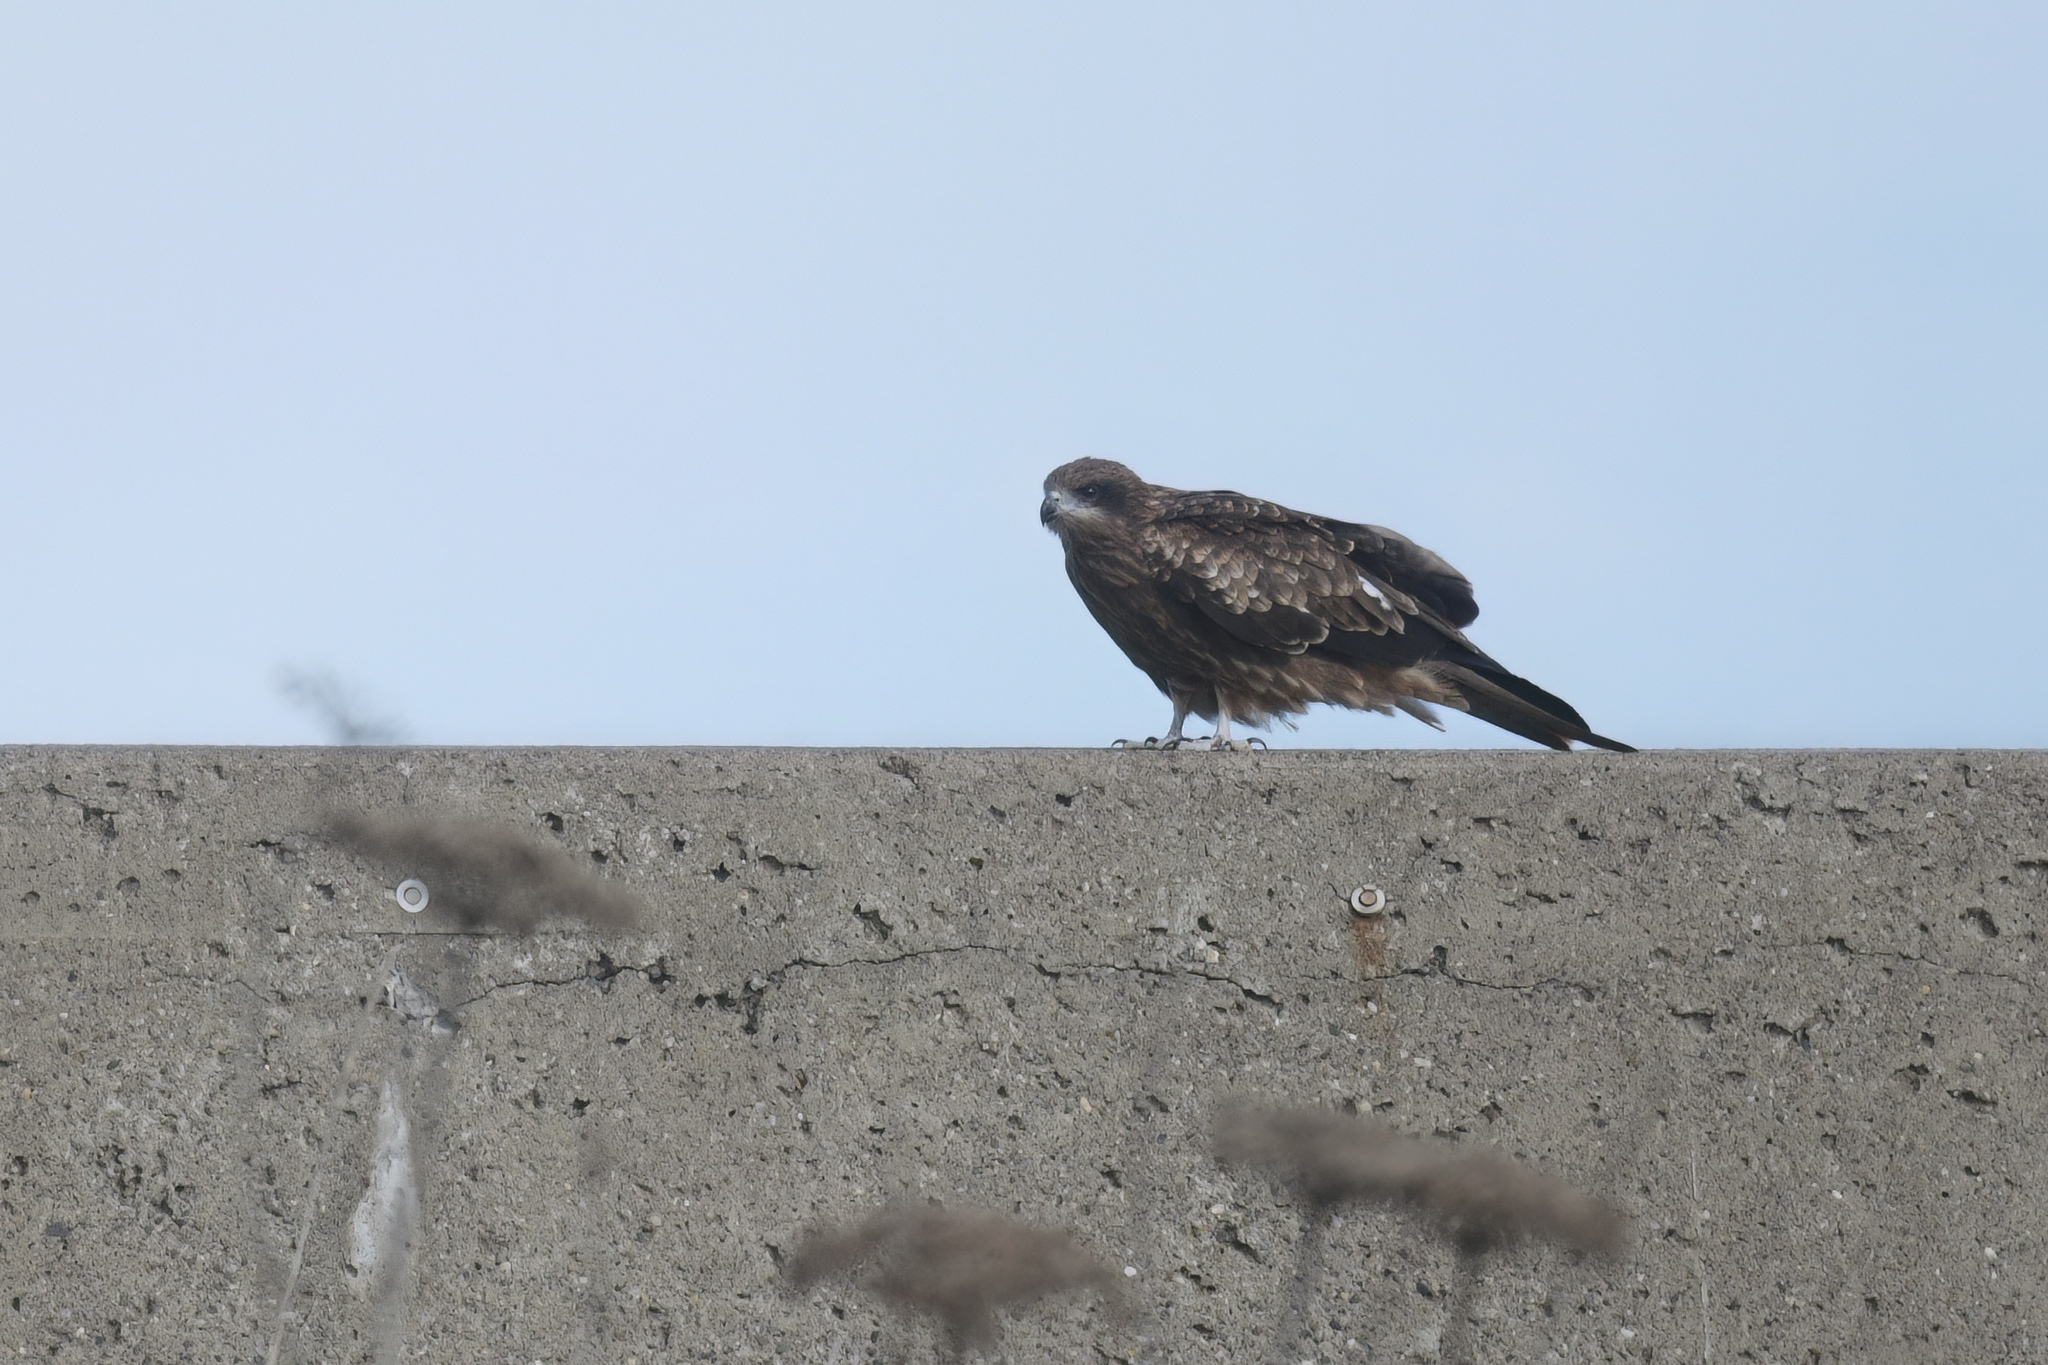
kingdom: Animalia
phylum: Chordata
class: Aves
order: Accipitriformes
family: Accipitridae
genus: Milvus
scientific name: Milvus migrans
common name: Black kite
